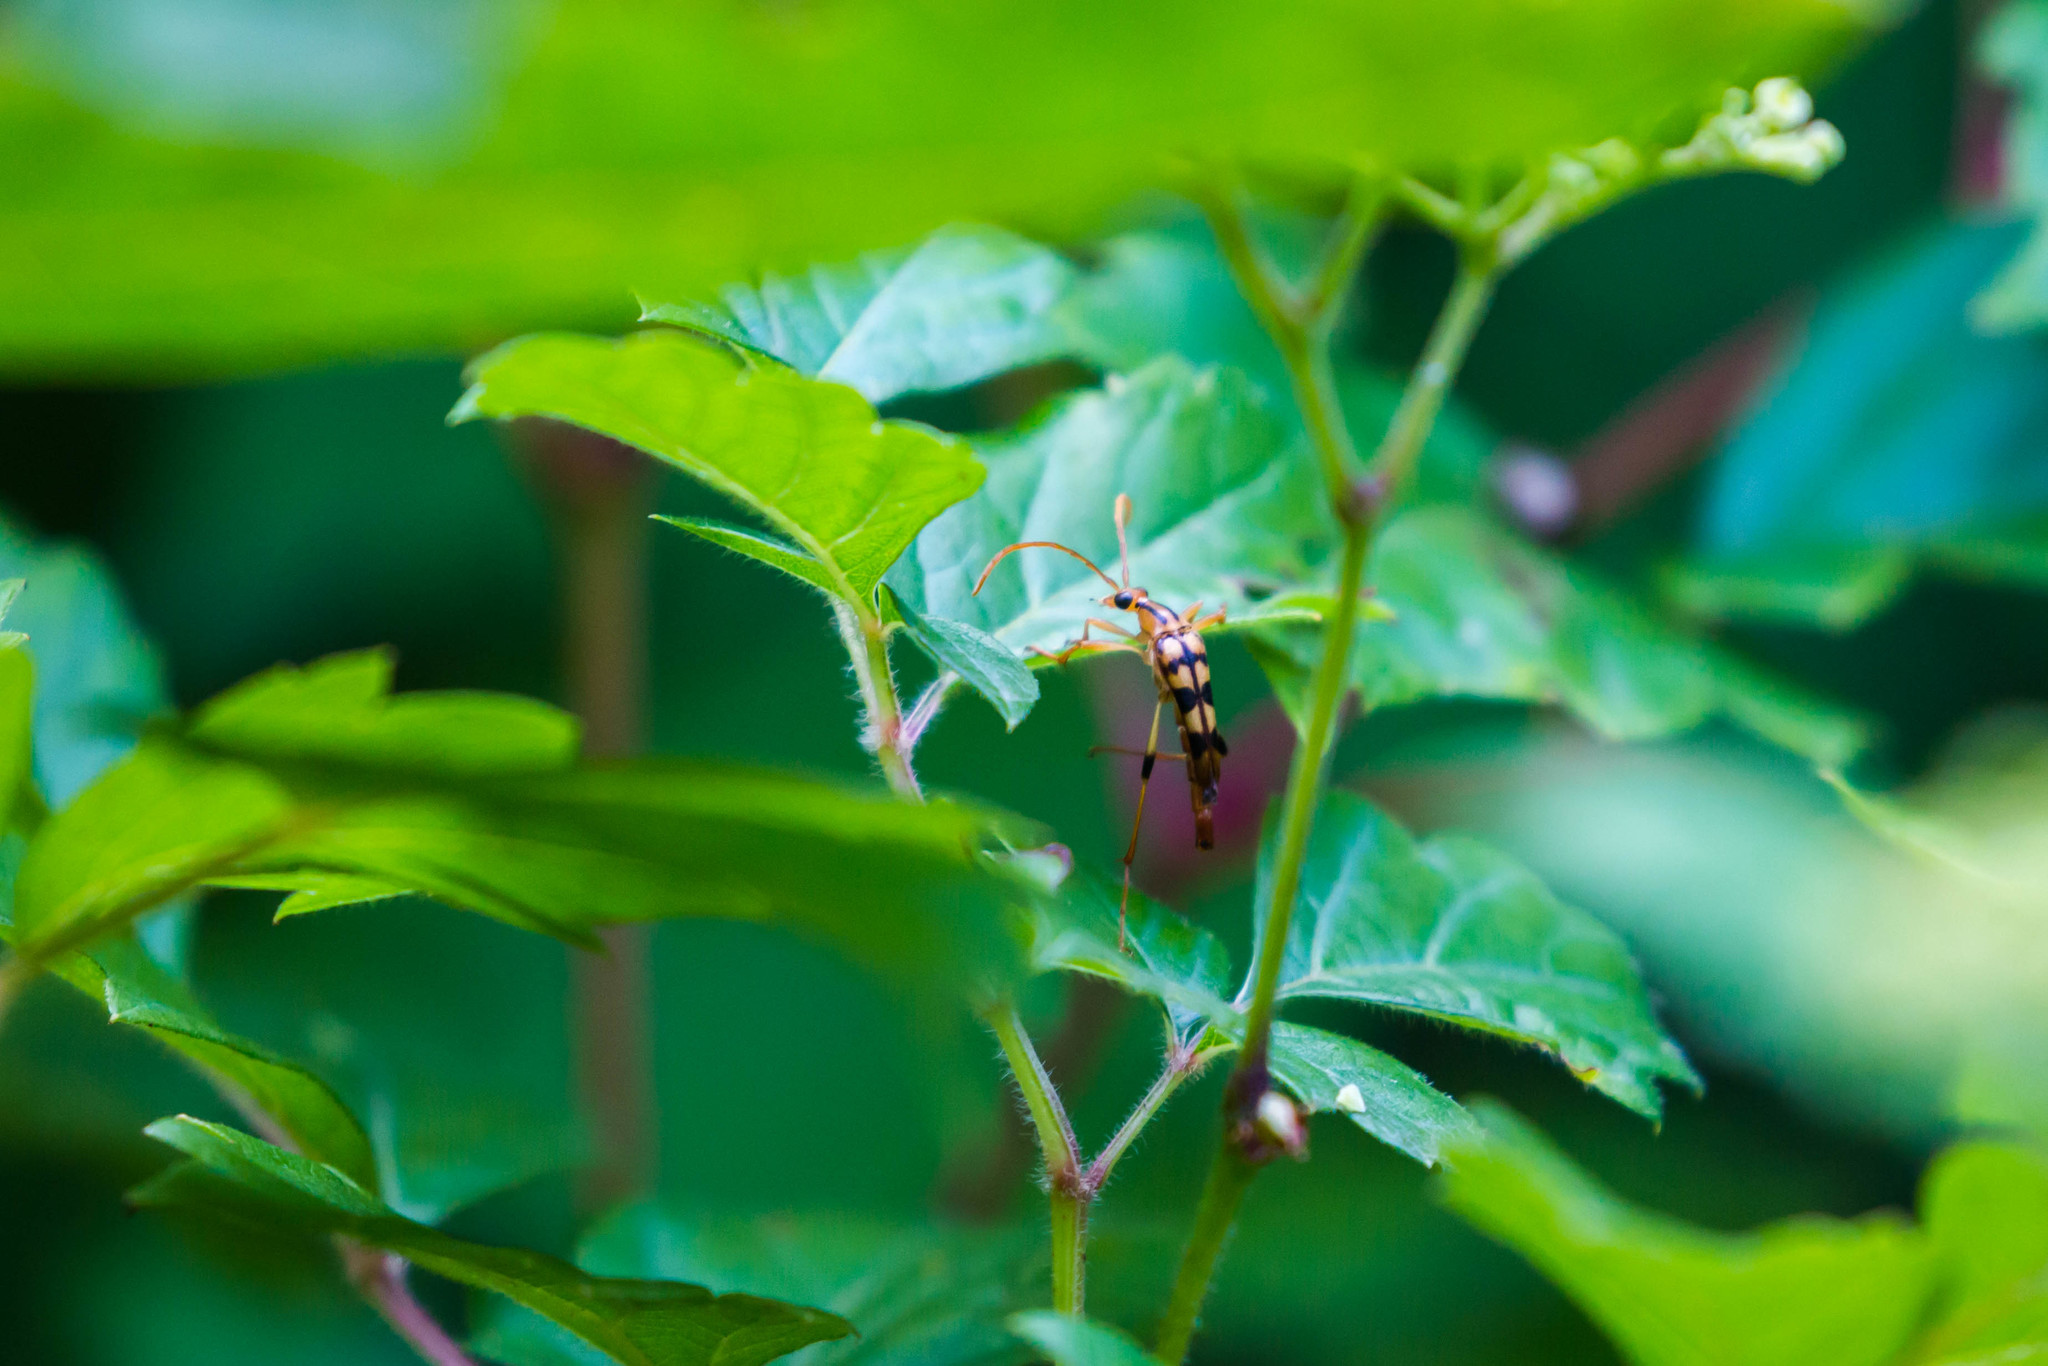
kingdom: Animalia
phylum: Arthropoda
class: Insecta
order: Coleoptera
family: Cerambycidae
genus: Strangalia
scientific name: Strangalia luteicornis
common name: Yellow-horned flower longhorn beetle
